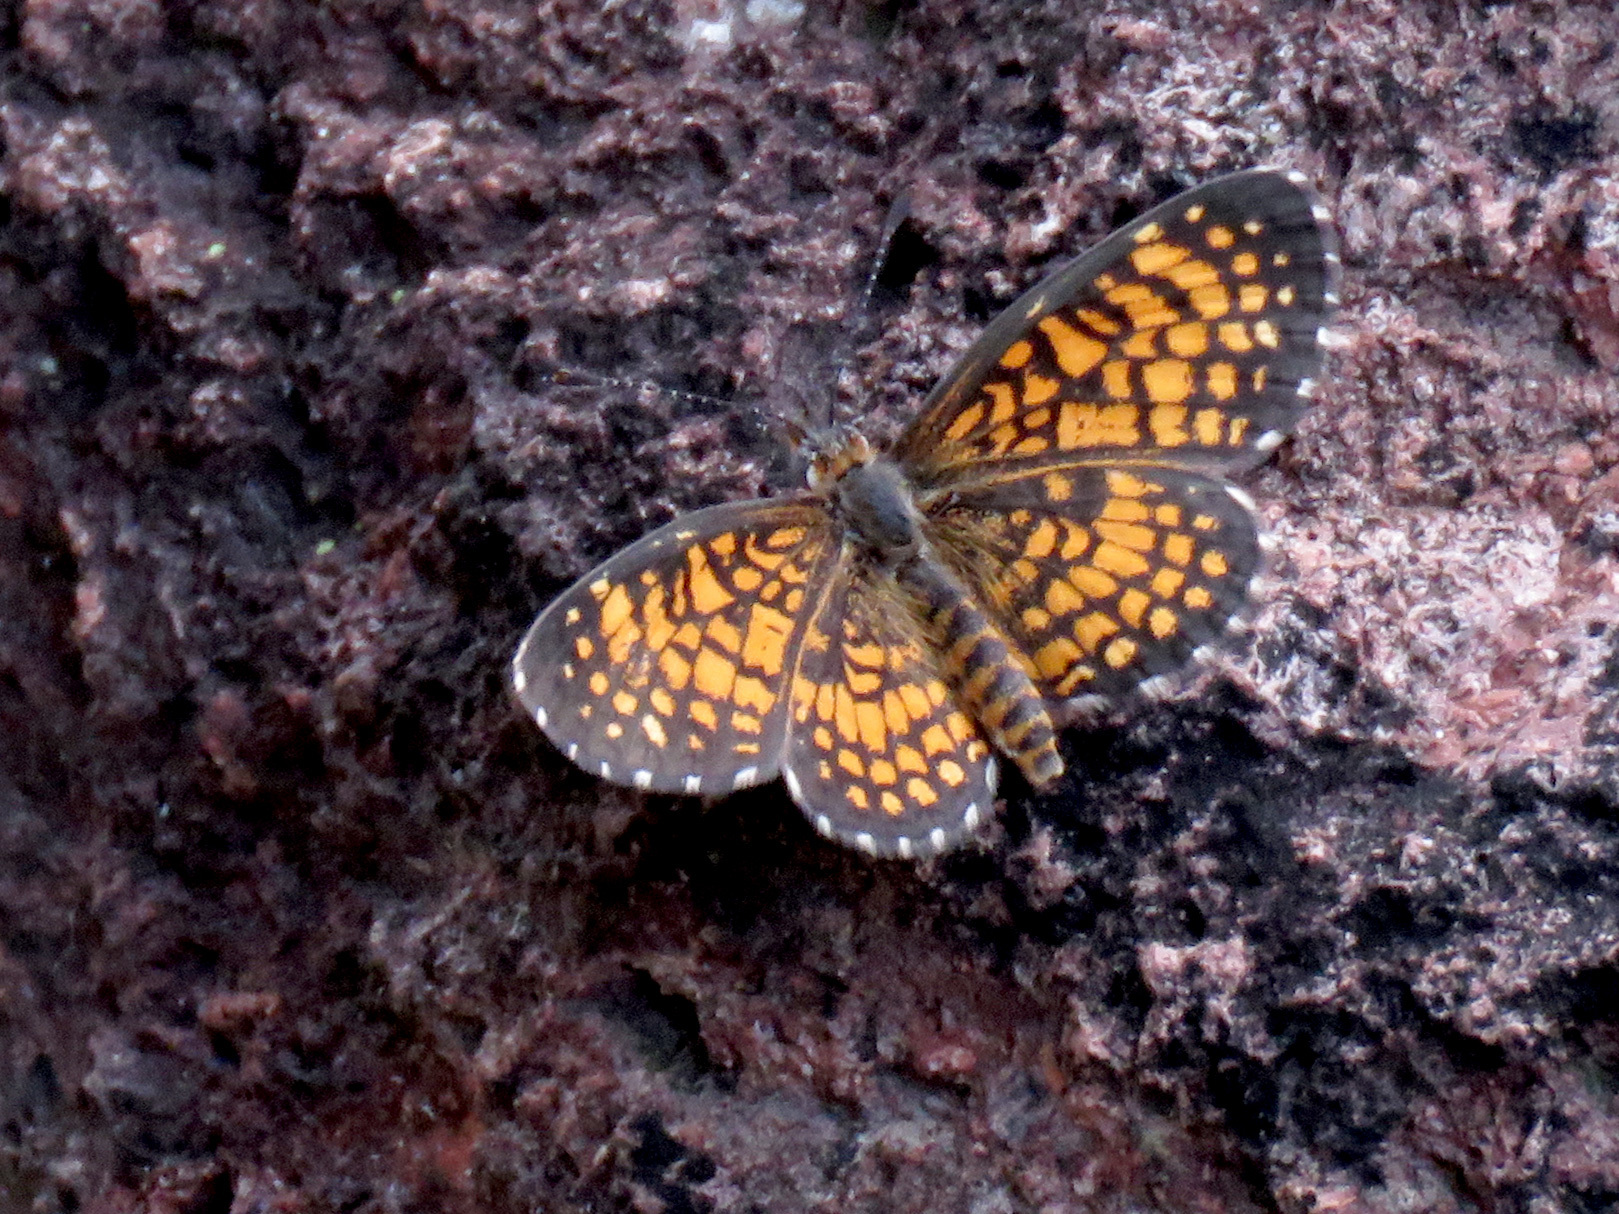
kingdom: Animalia
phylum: Arthropoda
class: Insecta
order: Lepidoptera
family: Nymphalidae
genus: Texola
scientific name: Texola
